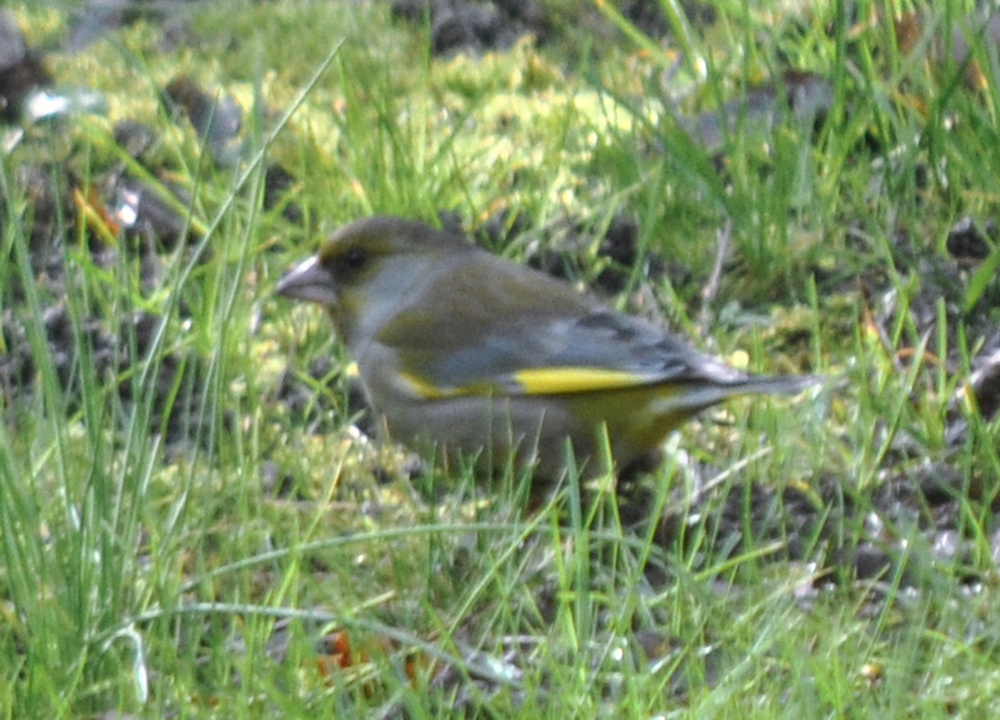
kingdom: Plantae
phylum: Tracheophyta
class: Liliopsida
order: Poales
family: Poaceae
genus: Chloris
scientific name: Chloris chloris
